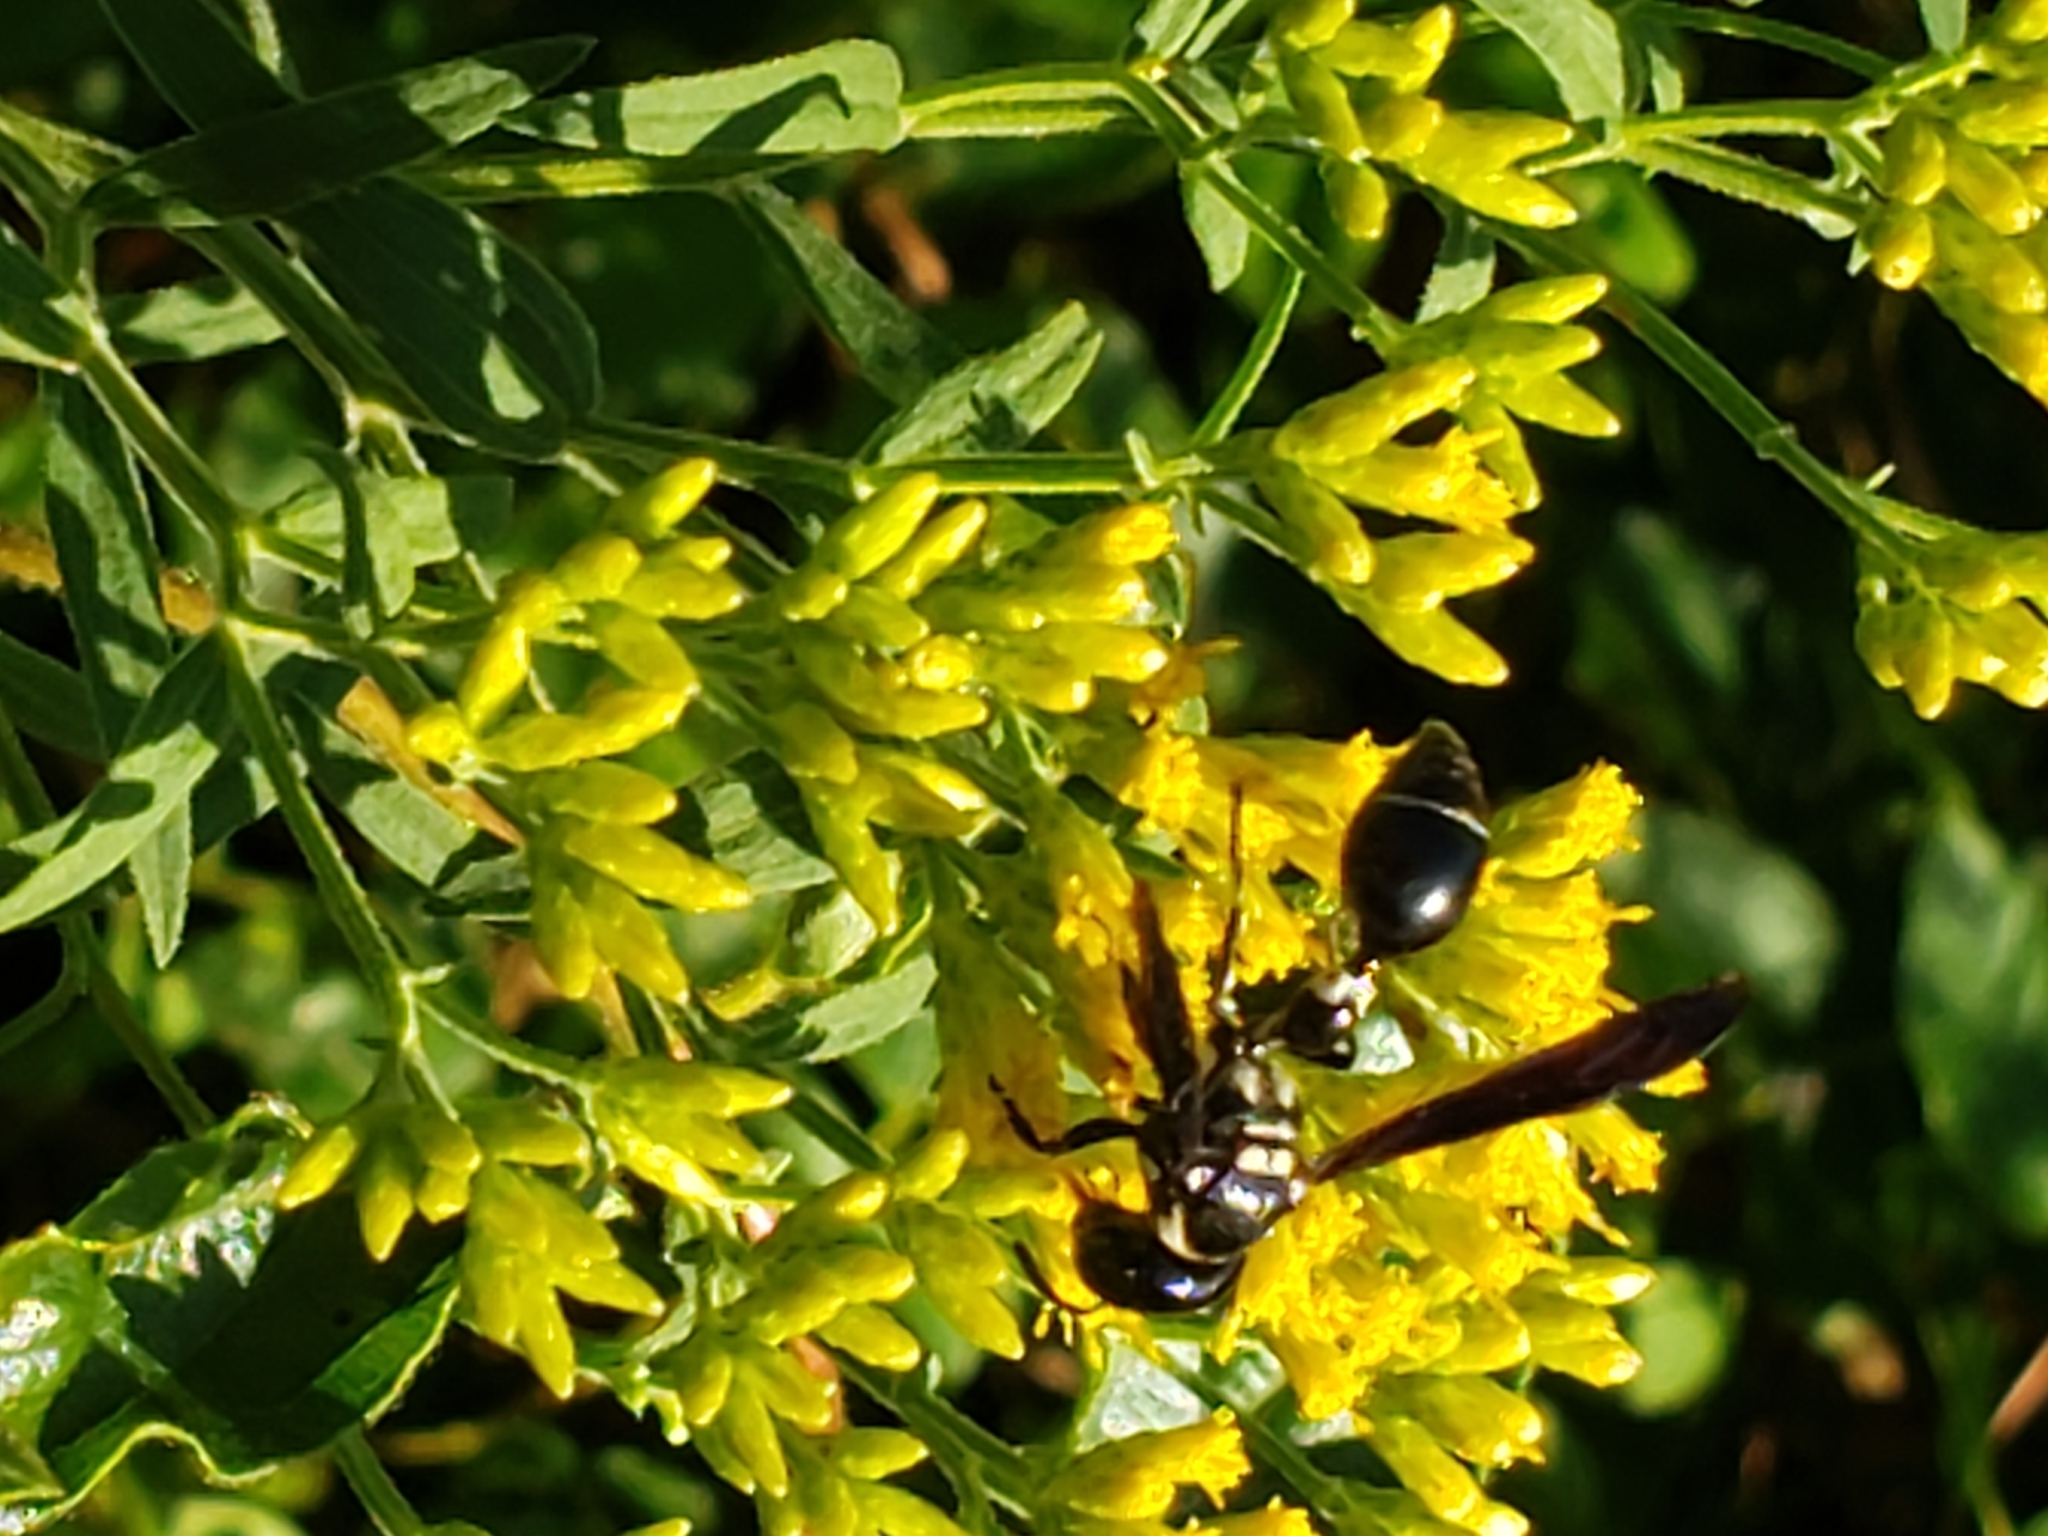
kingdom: Animalia
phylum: Arthropoda
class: Insecta
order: Hymenoptera
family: Eumenidae
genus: Zethus
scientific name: Zethus spinipes
